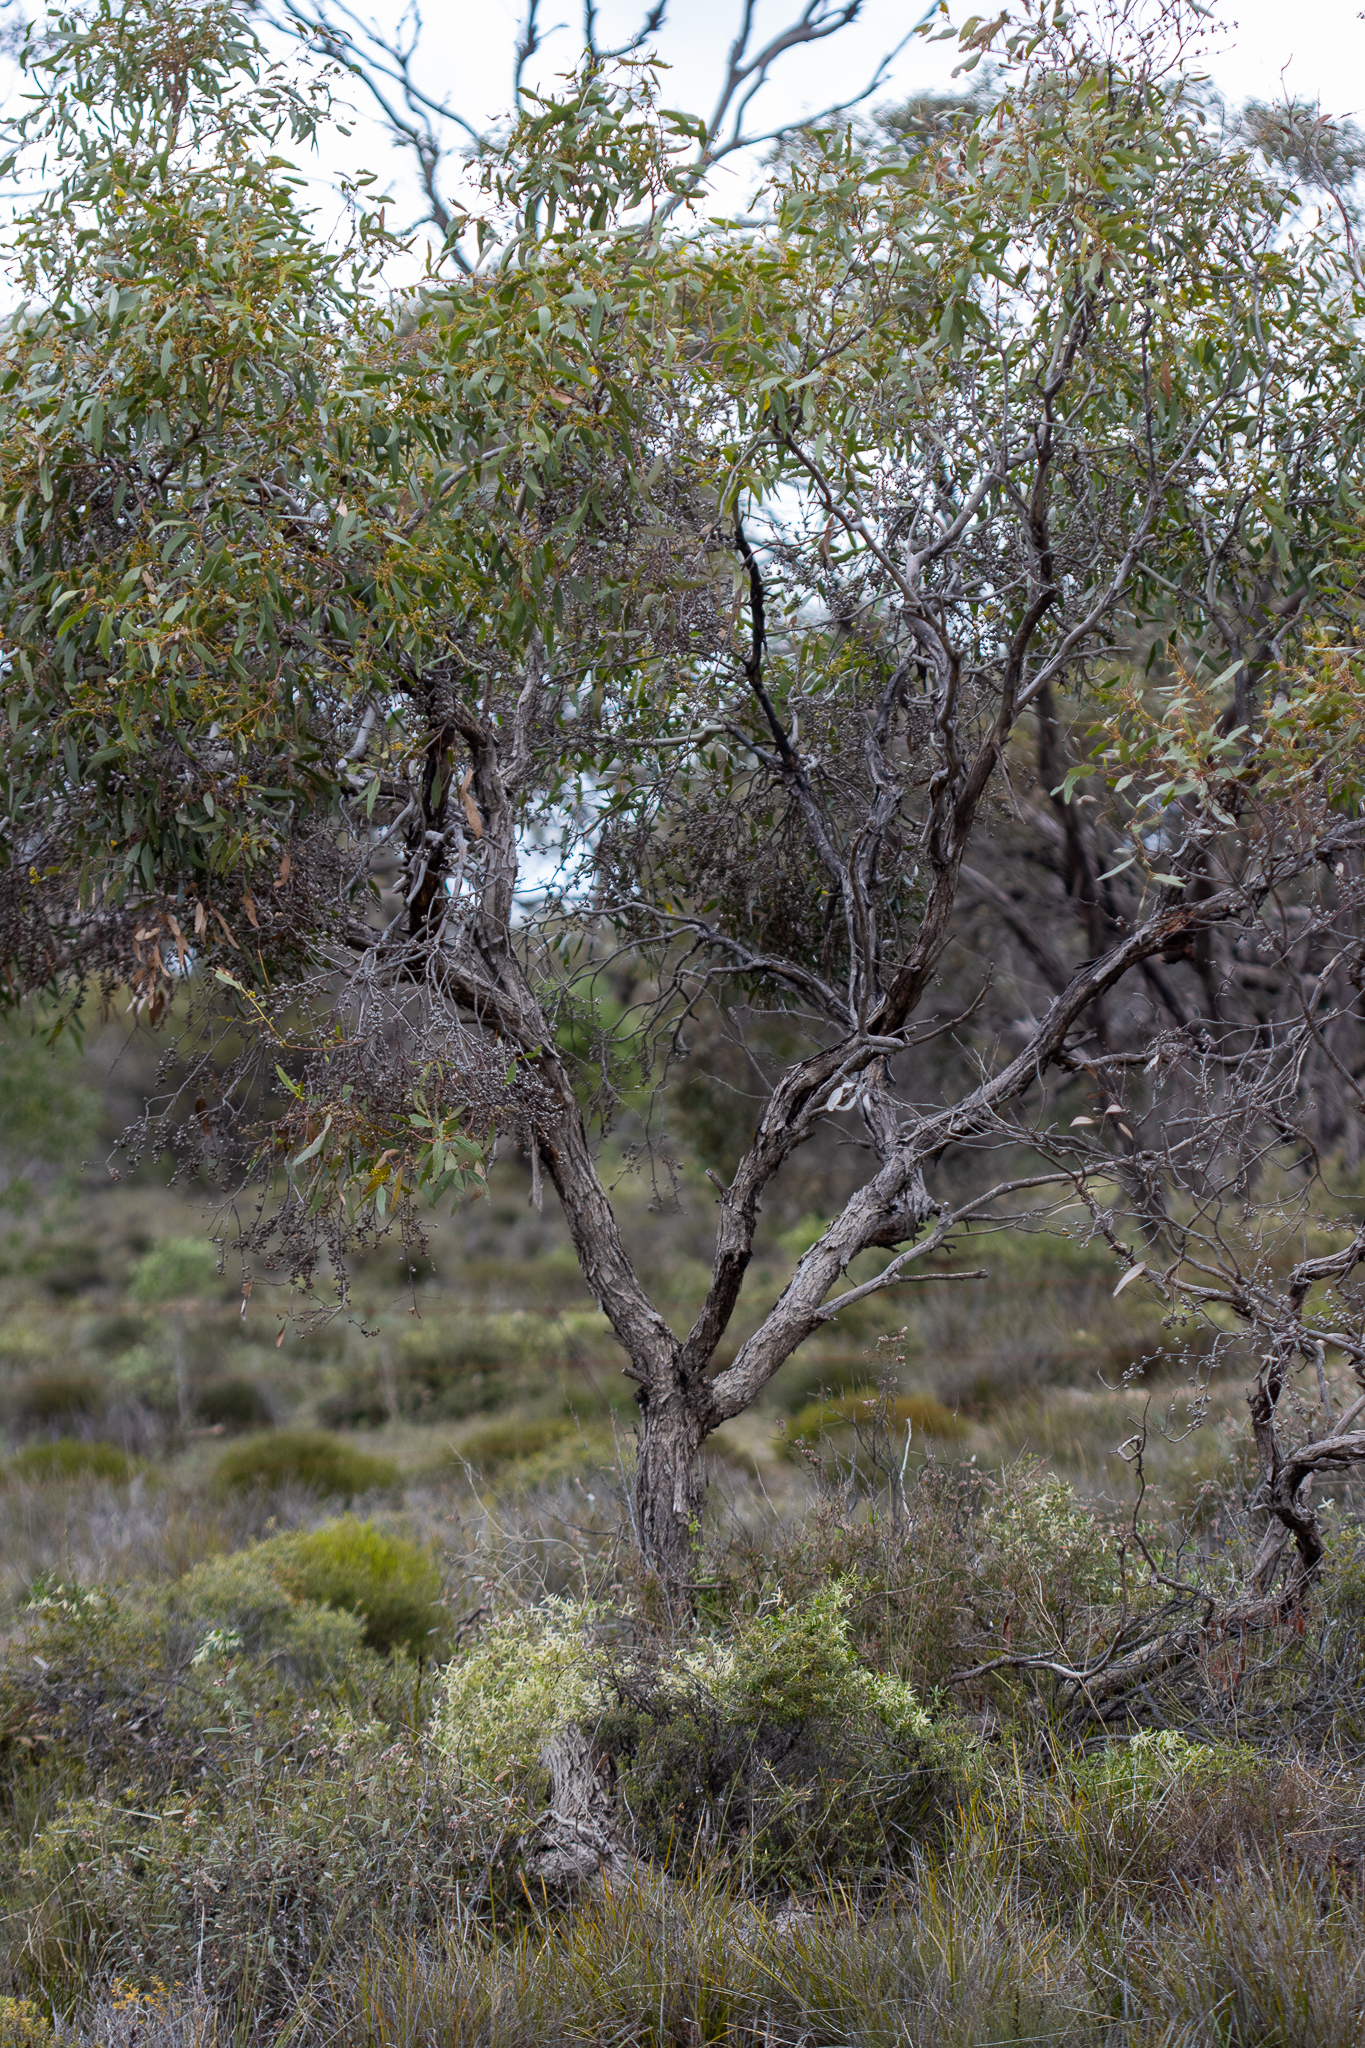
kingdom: Plantae
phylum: Tracheophyta
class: Magnoliopsida
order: Myrtales
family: Myrtaceae
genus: Eucalyptus
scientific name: Eucalyptus porosa
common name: Quorn mallee
